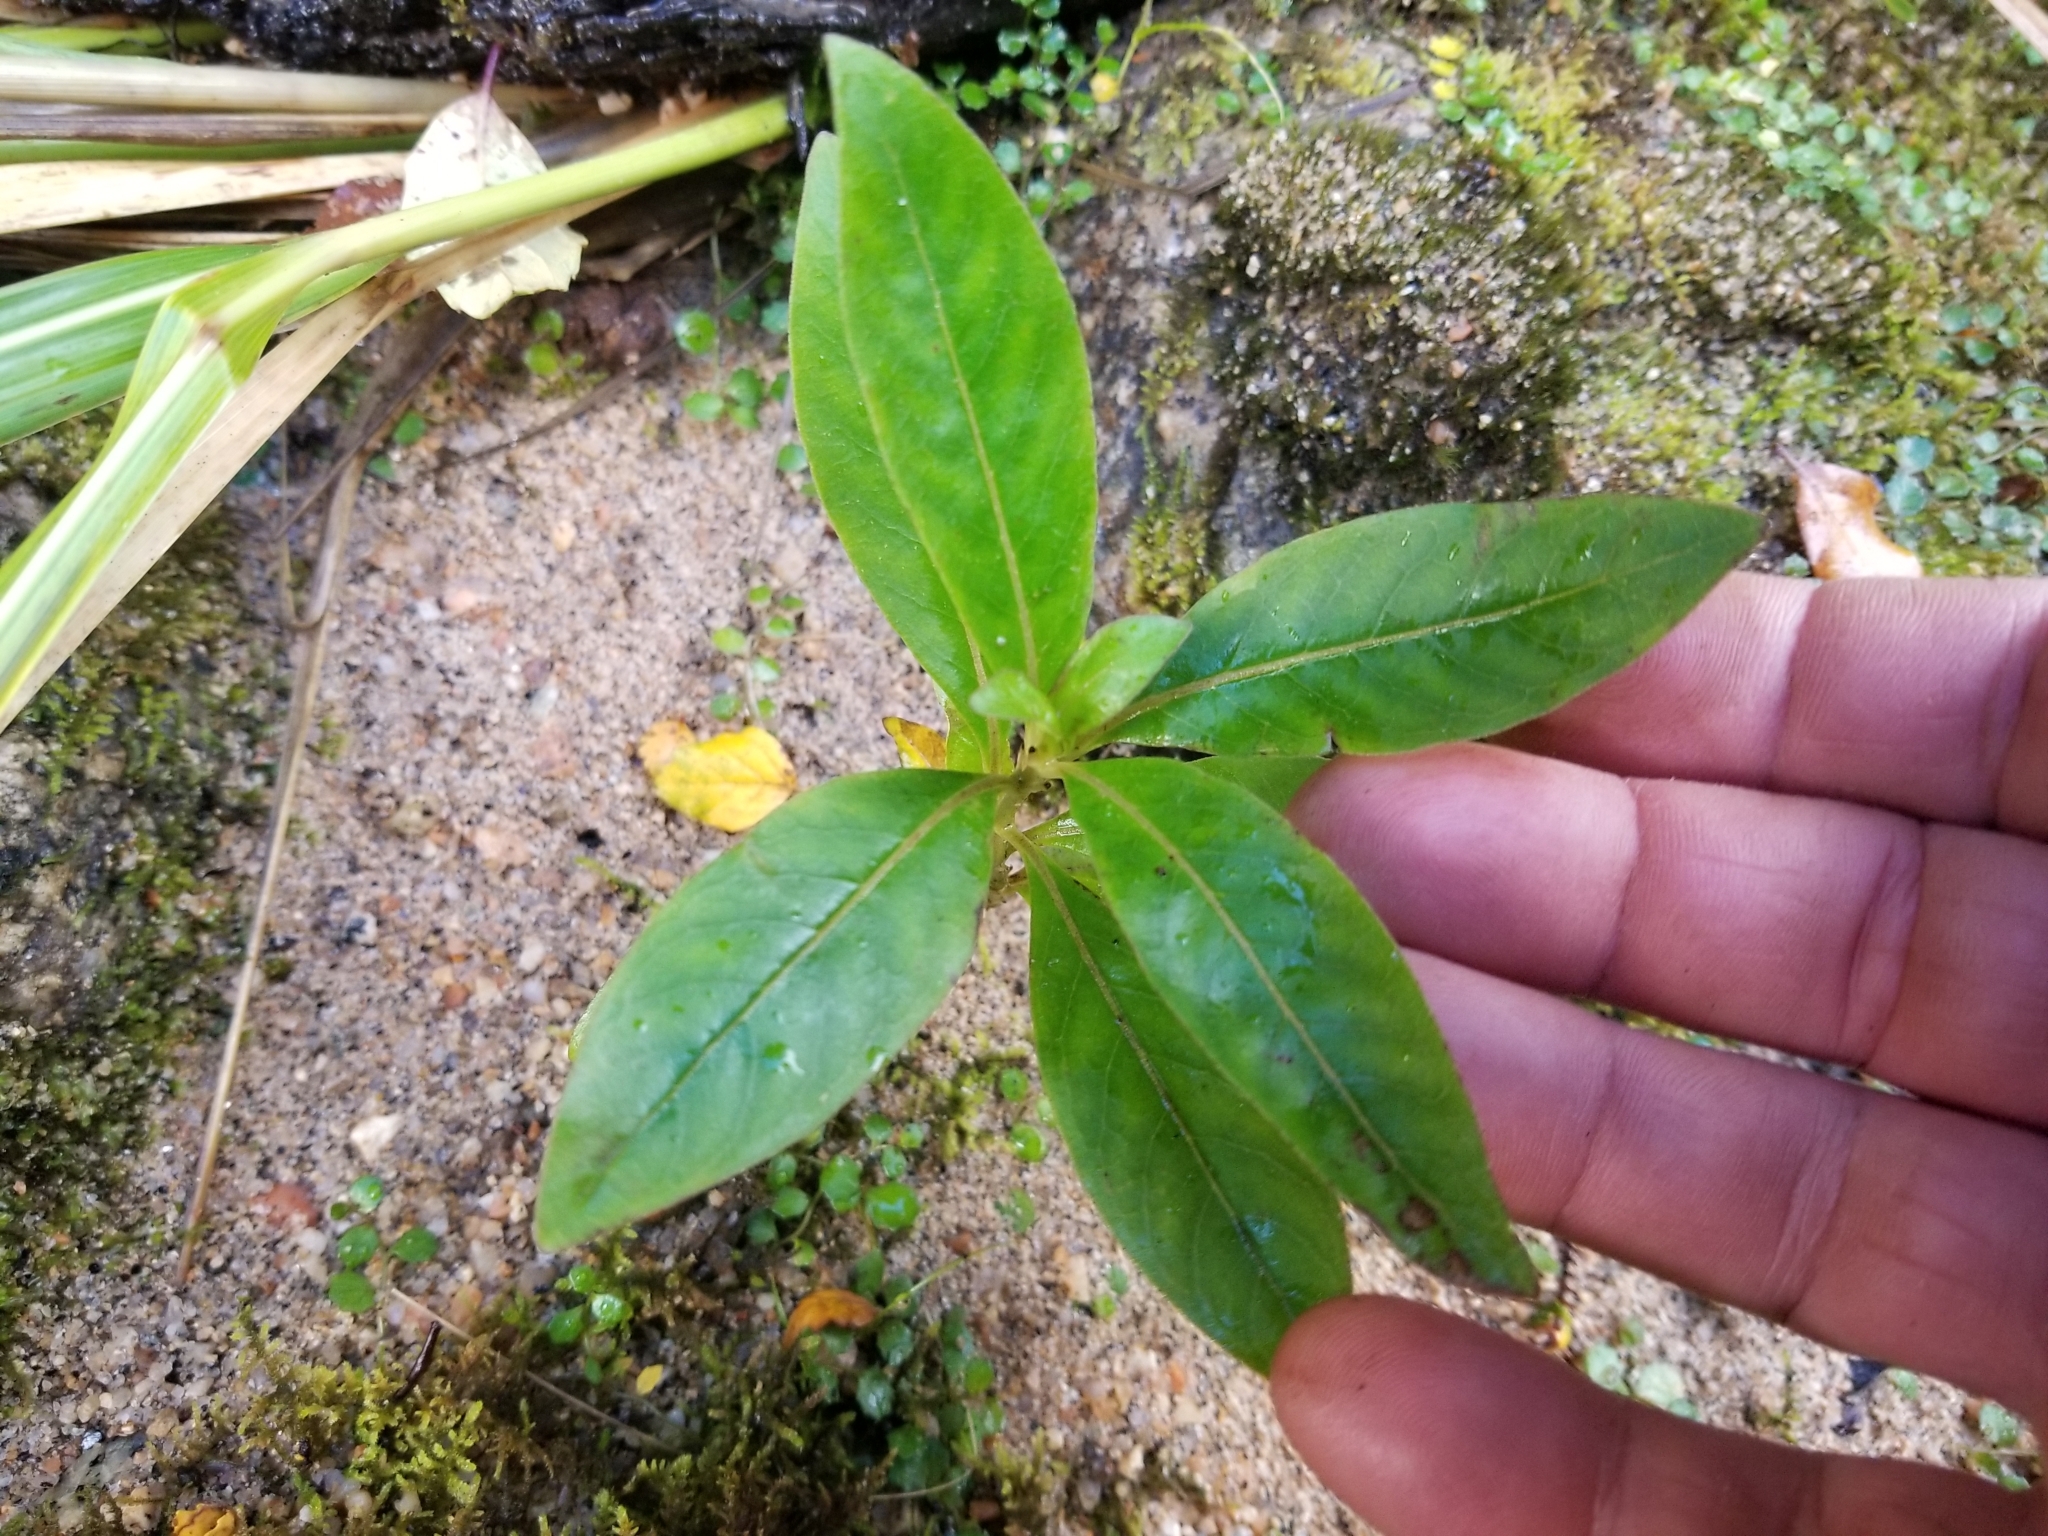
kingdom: Plantae
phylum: Tracheophyta
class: Magnoliopsida
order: Gentianales
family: Rubiaceae
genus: Coprosma
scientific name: Coprosma robusta
